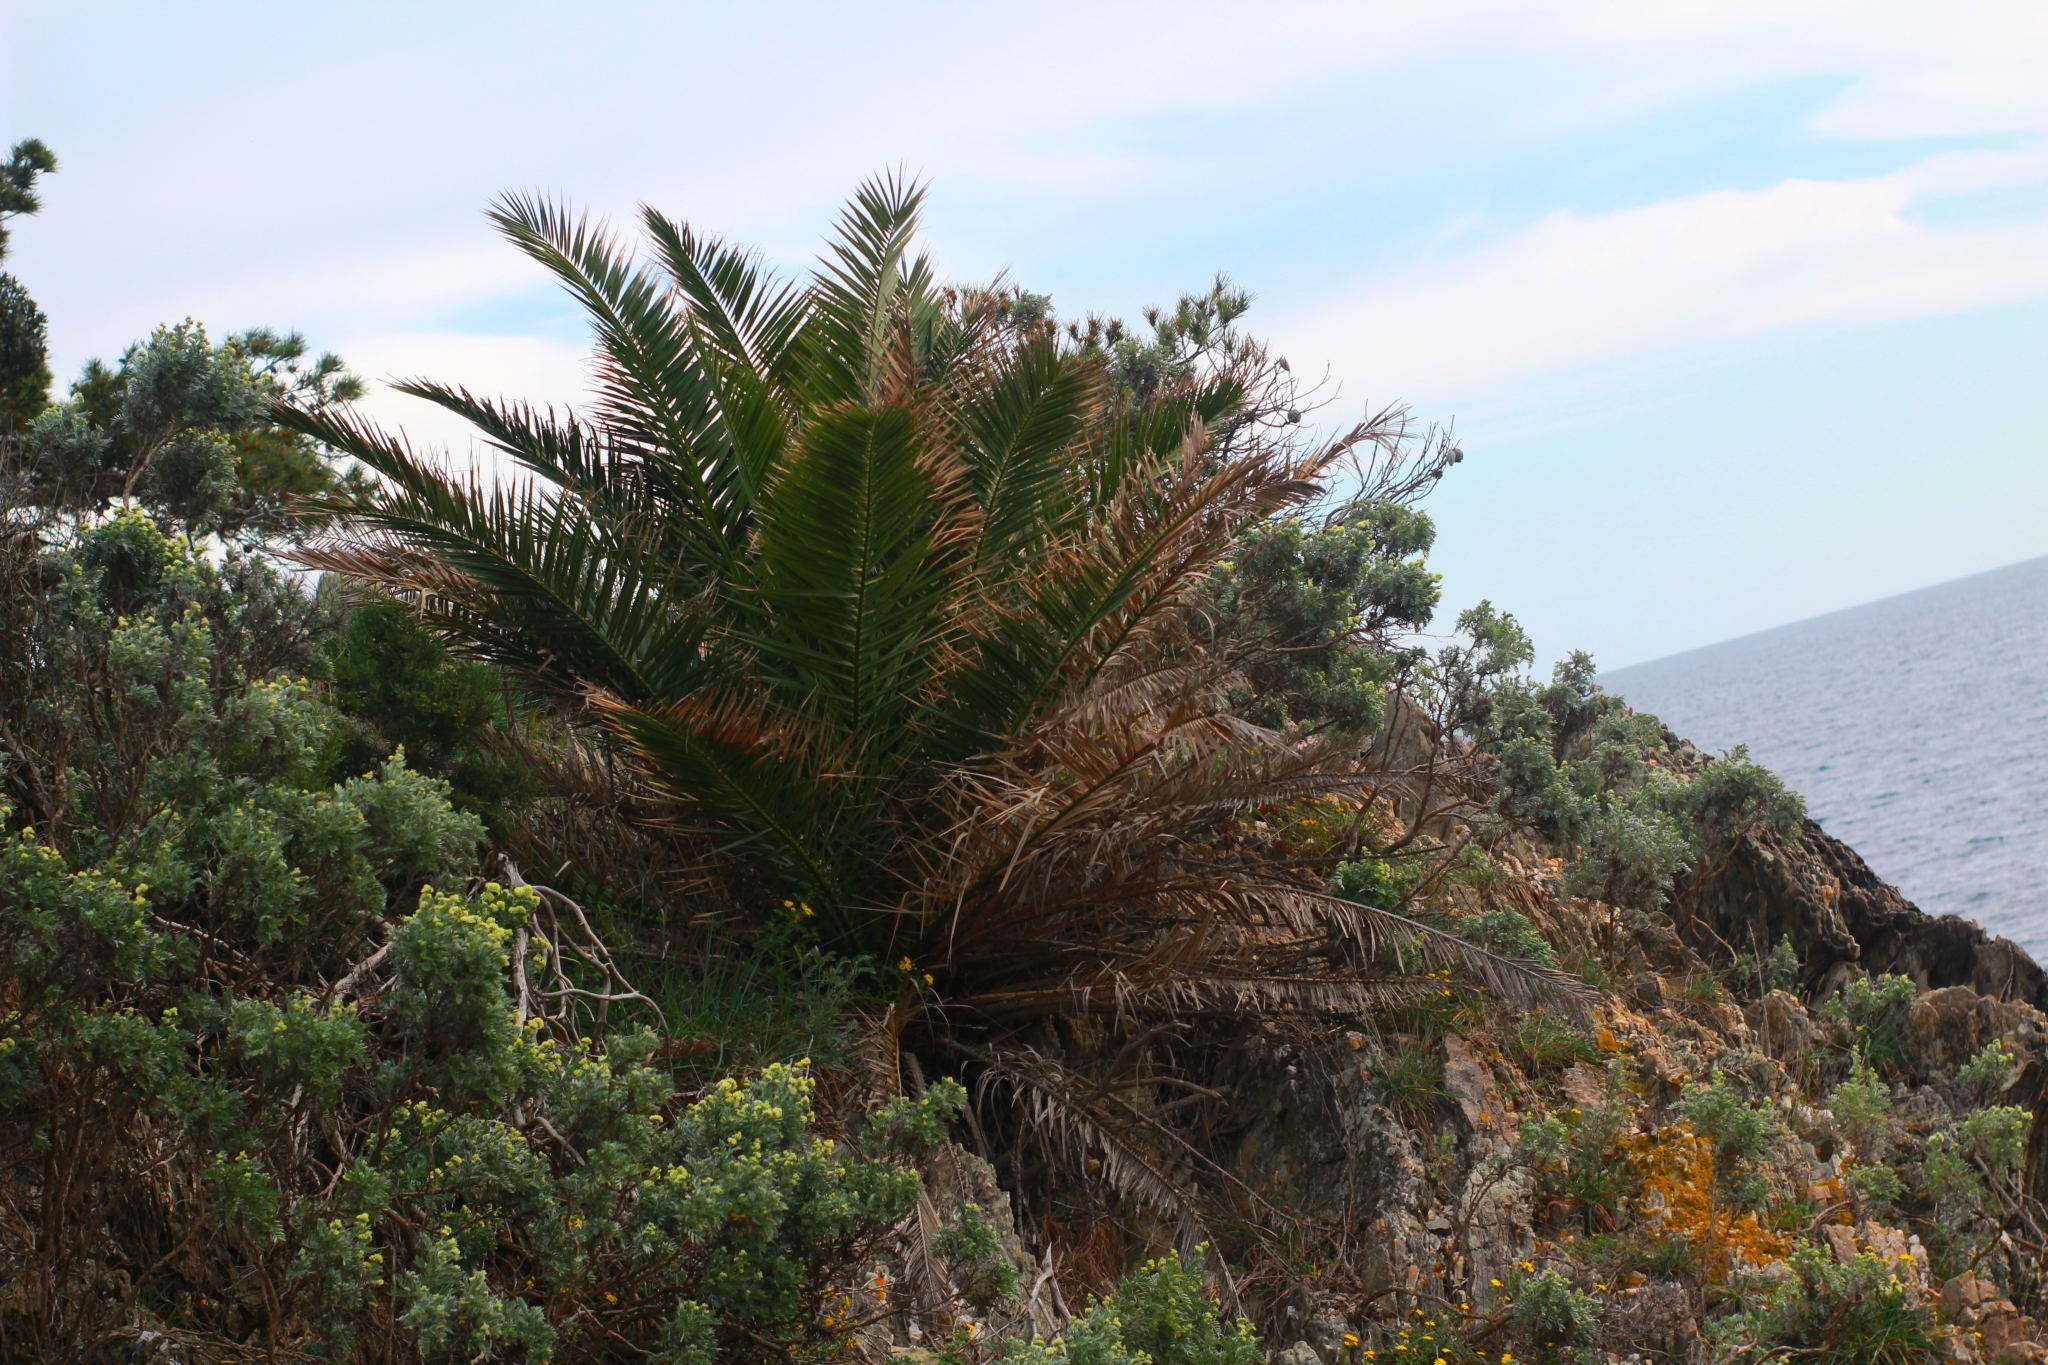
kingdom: Plantae
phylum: Tracheophyta
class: Liliopsida
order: Arecales
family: Arecaceae
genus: Phoenix
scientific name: Phoenix canariensis
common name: Canary island date palm
